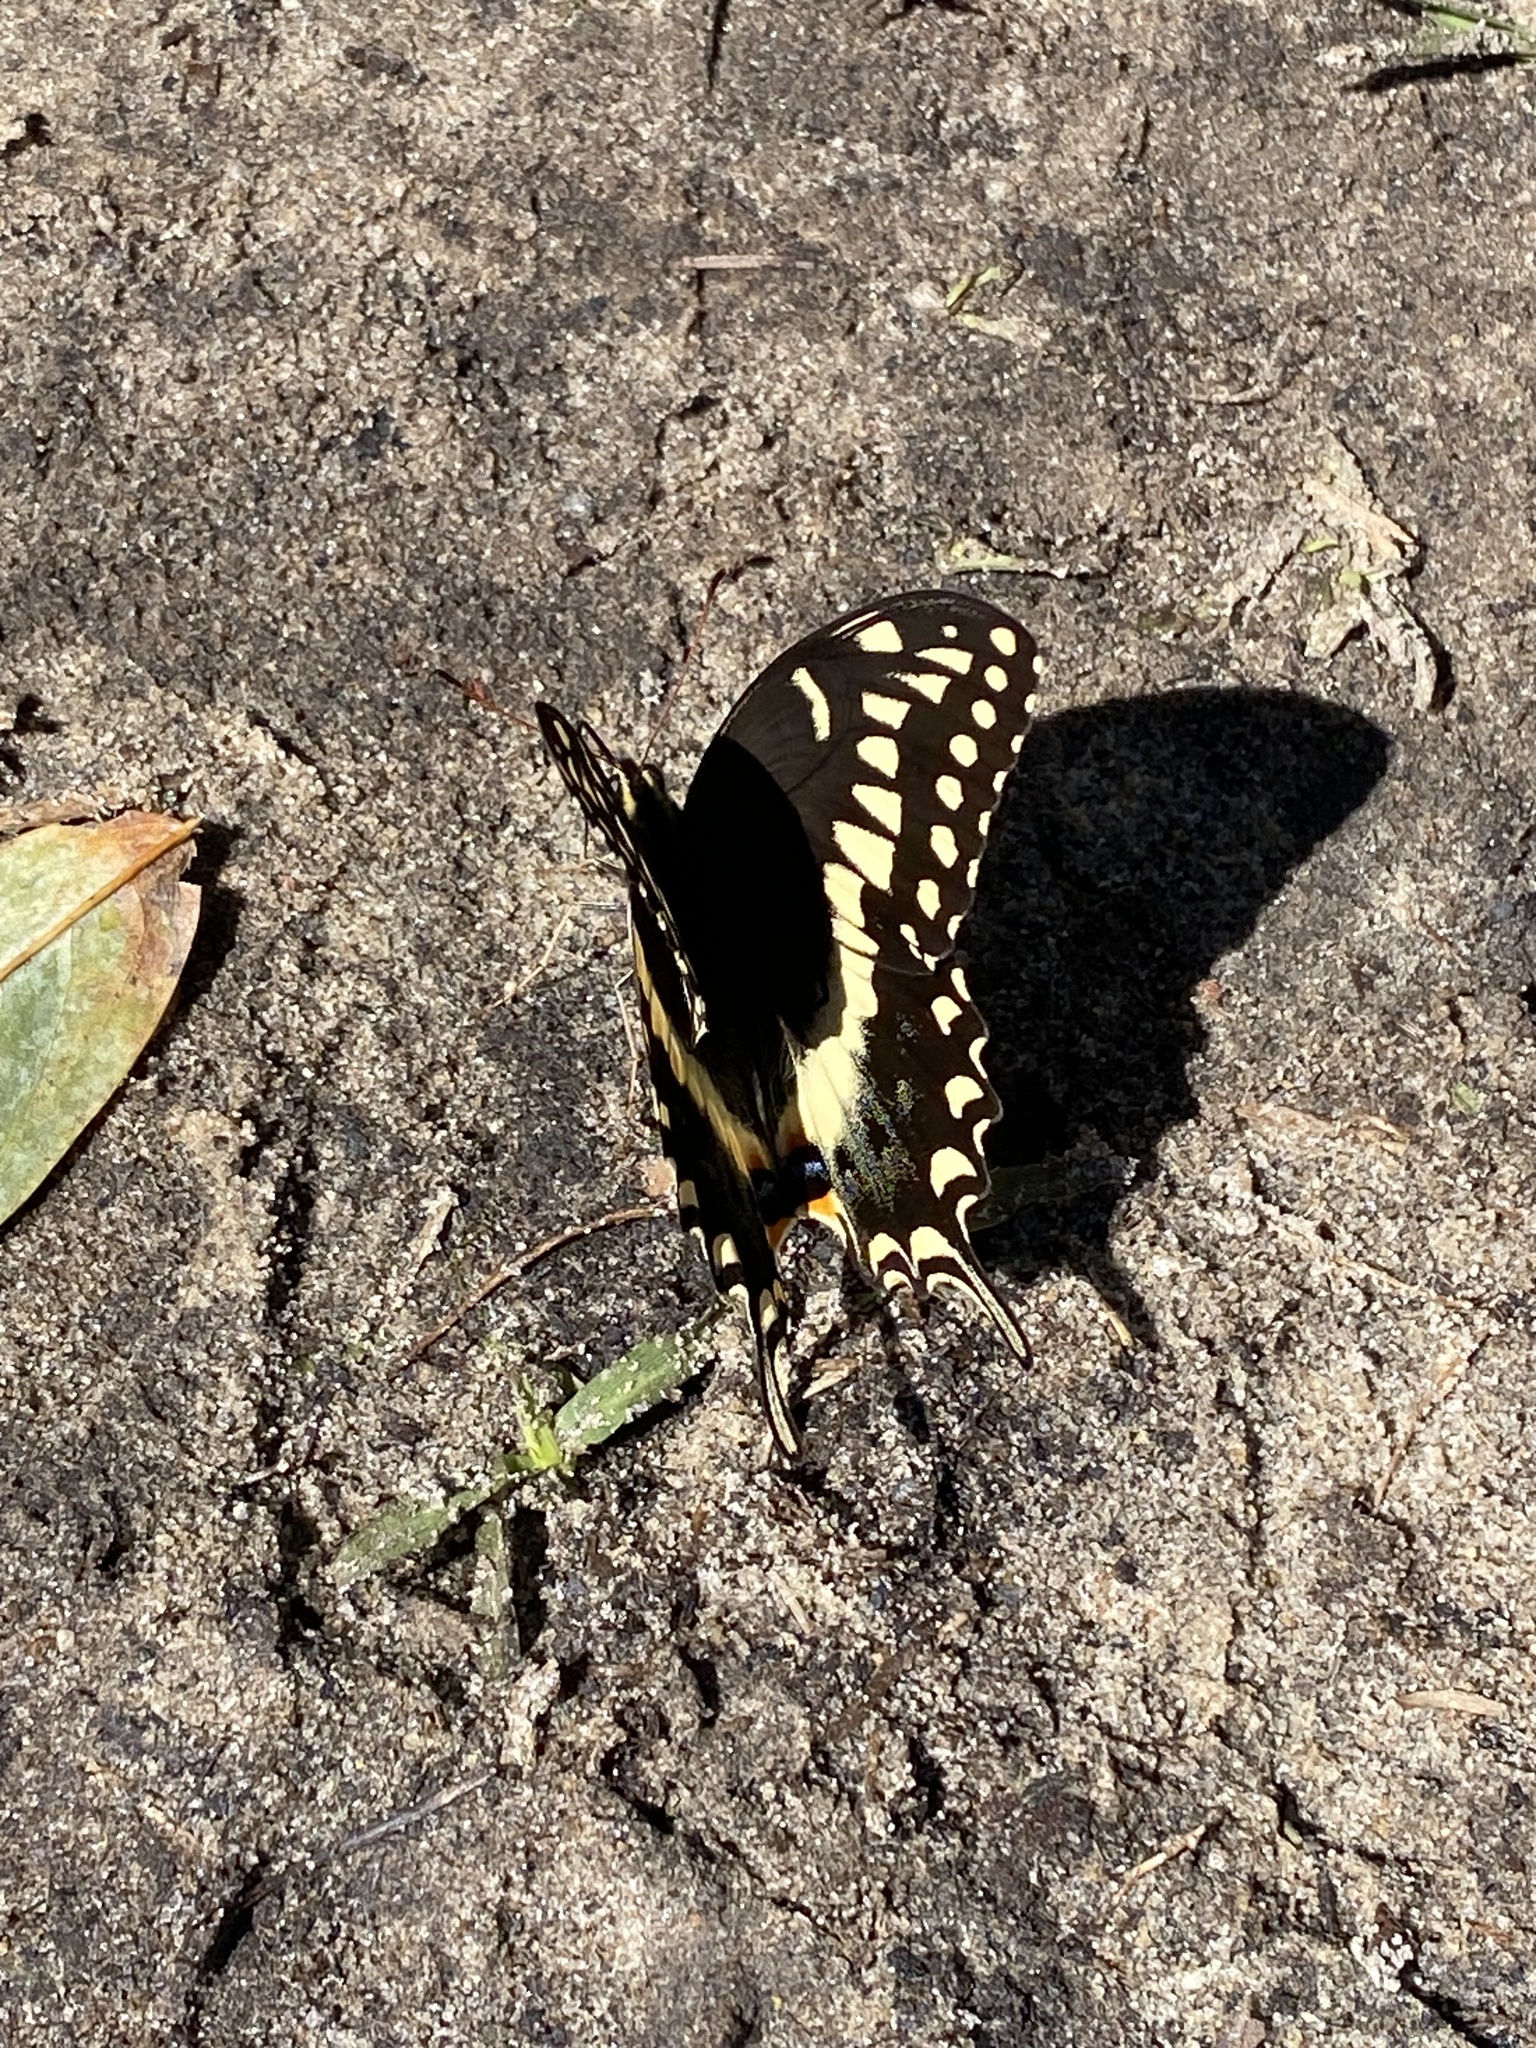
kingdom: Animalia
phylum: Arthropoda
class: Insecta
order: Lepidoptera
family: Papilionidae
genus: Papilio
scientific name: Papilio palamedes
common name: Palamedes swallowtail
